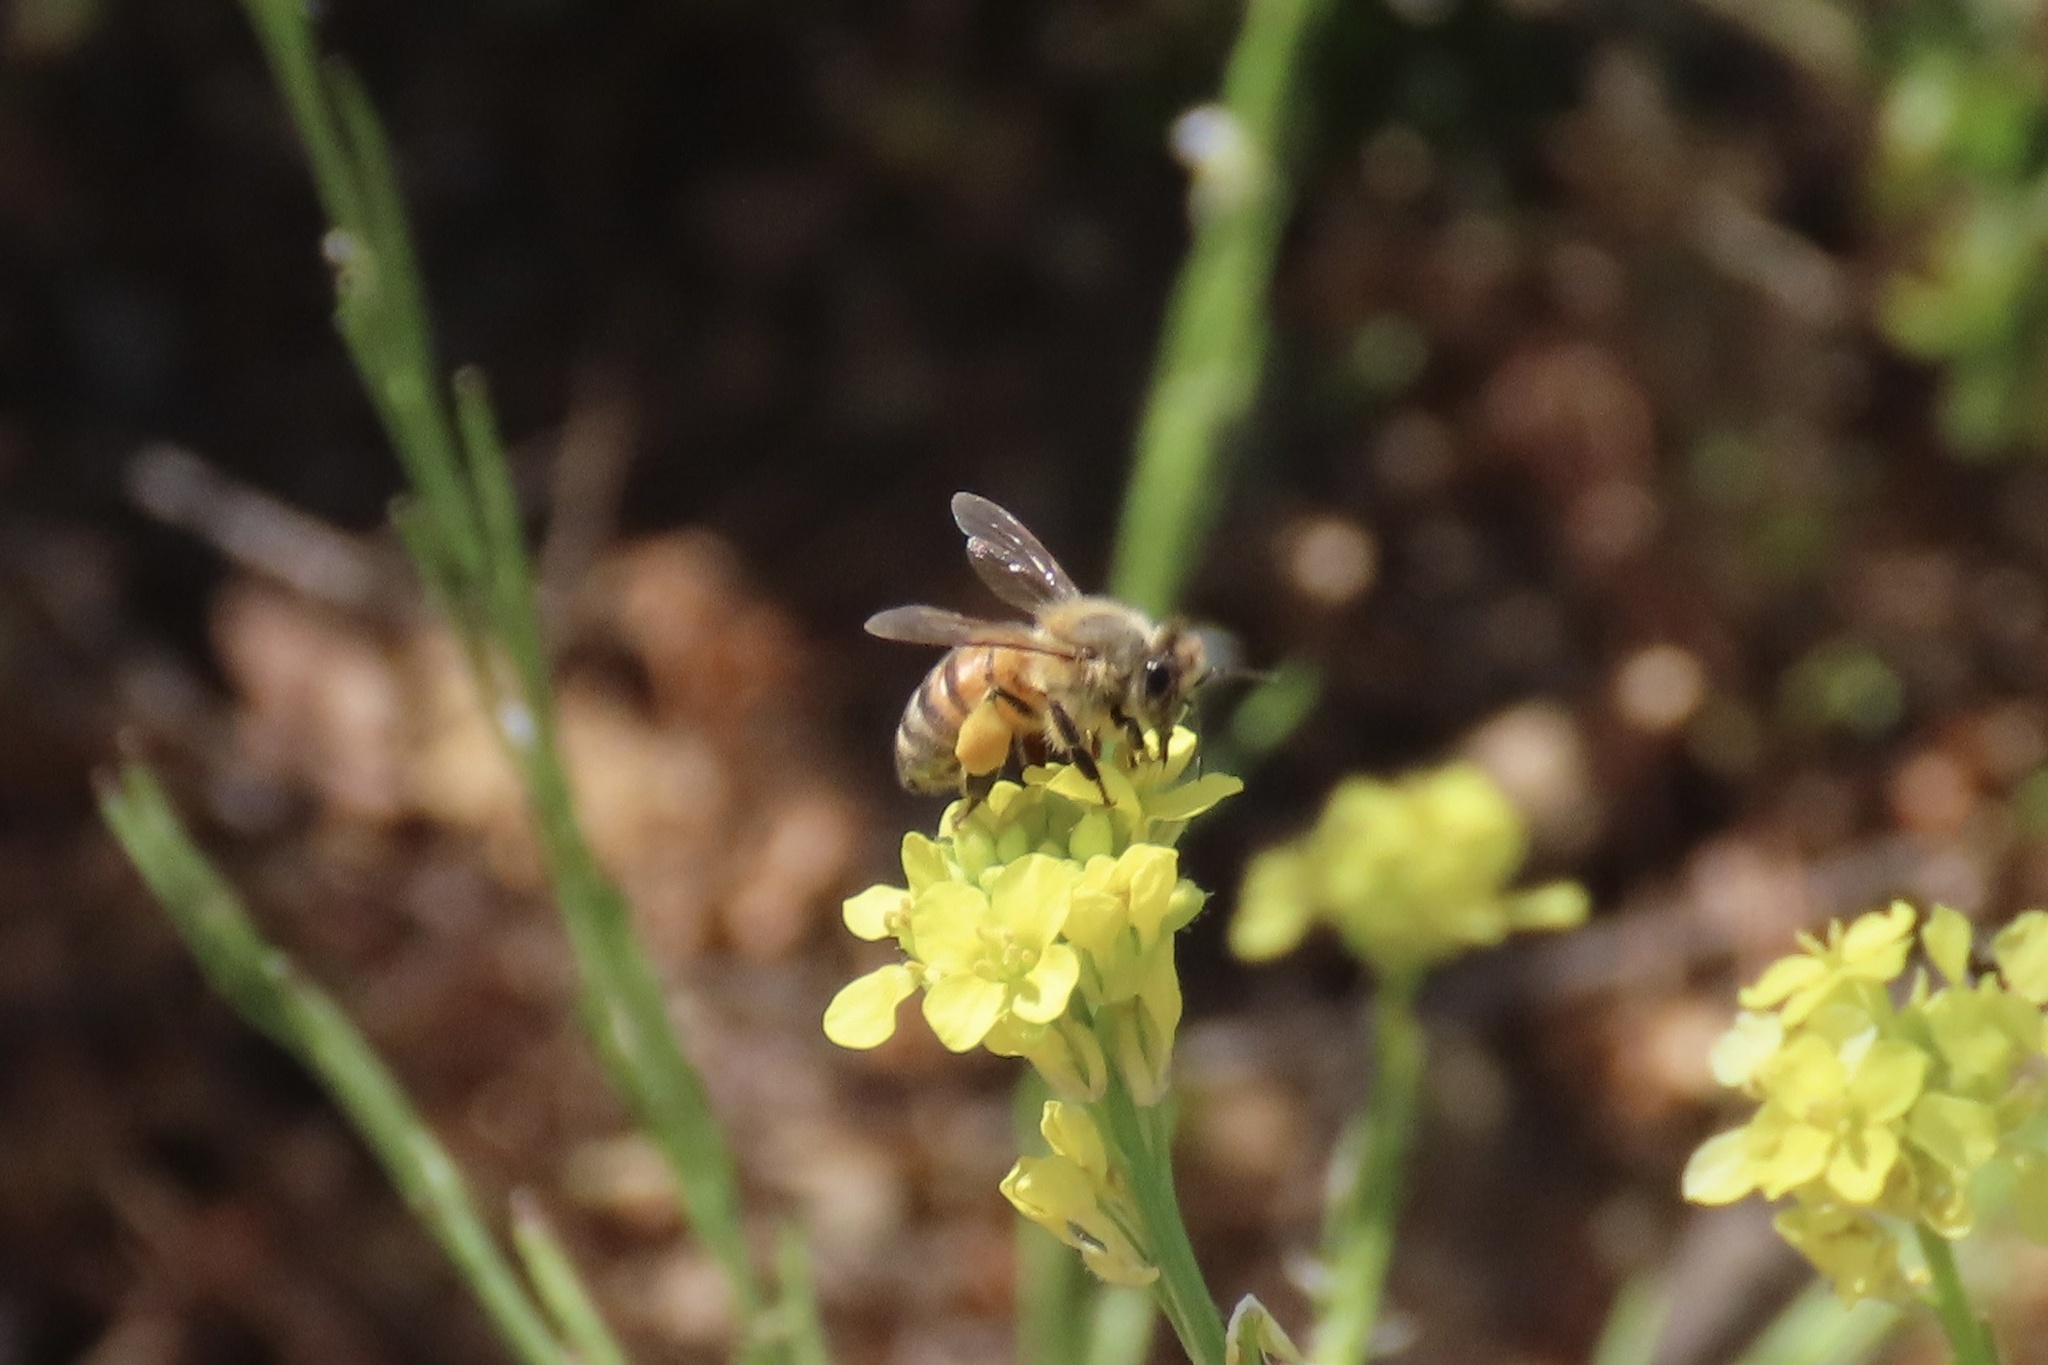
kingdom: Animalia
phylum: Arthropoda
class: Insecta
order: Hymenoptera
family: Apidae
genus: Apis
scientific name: Apis mellifera
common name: Honey bee
